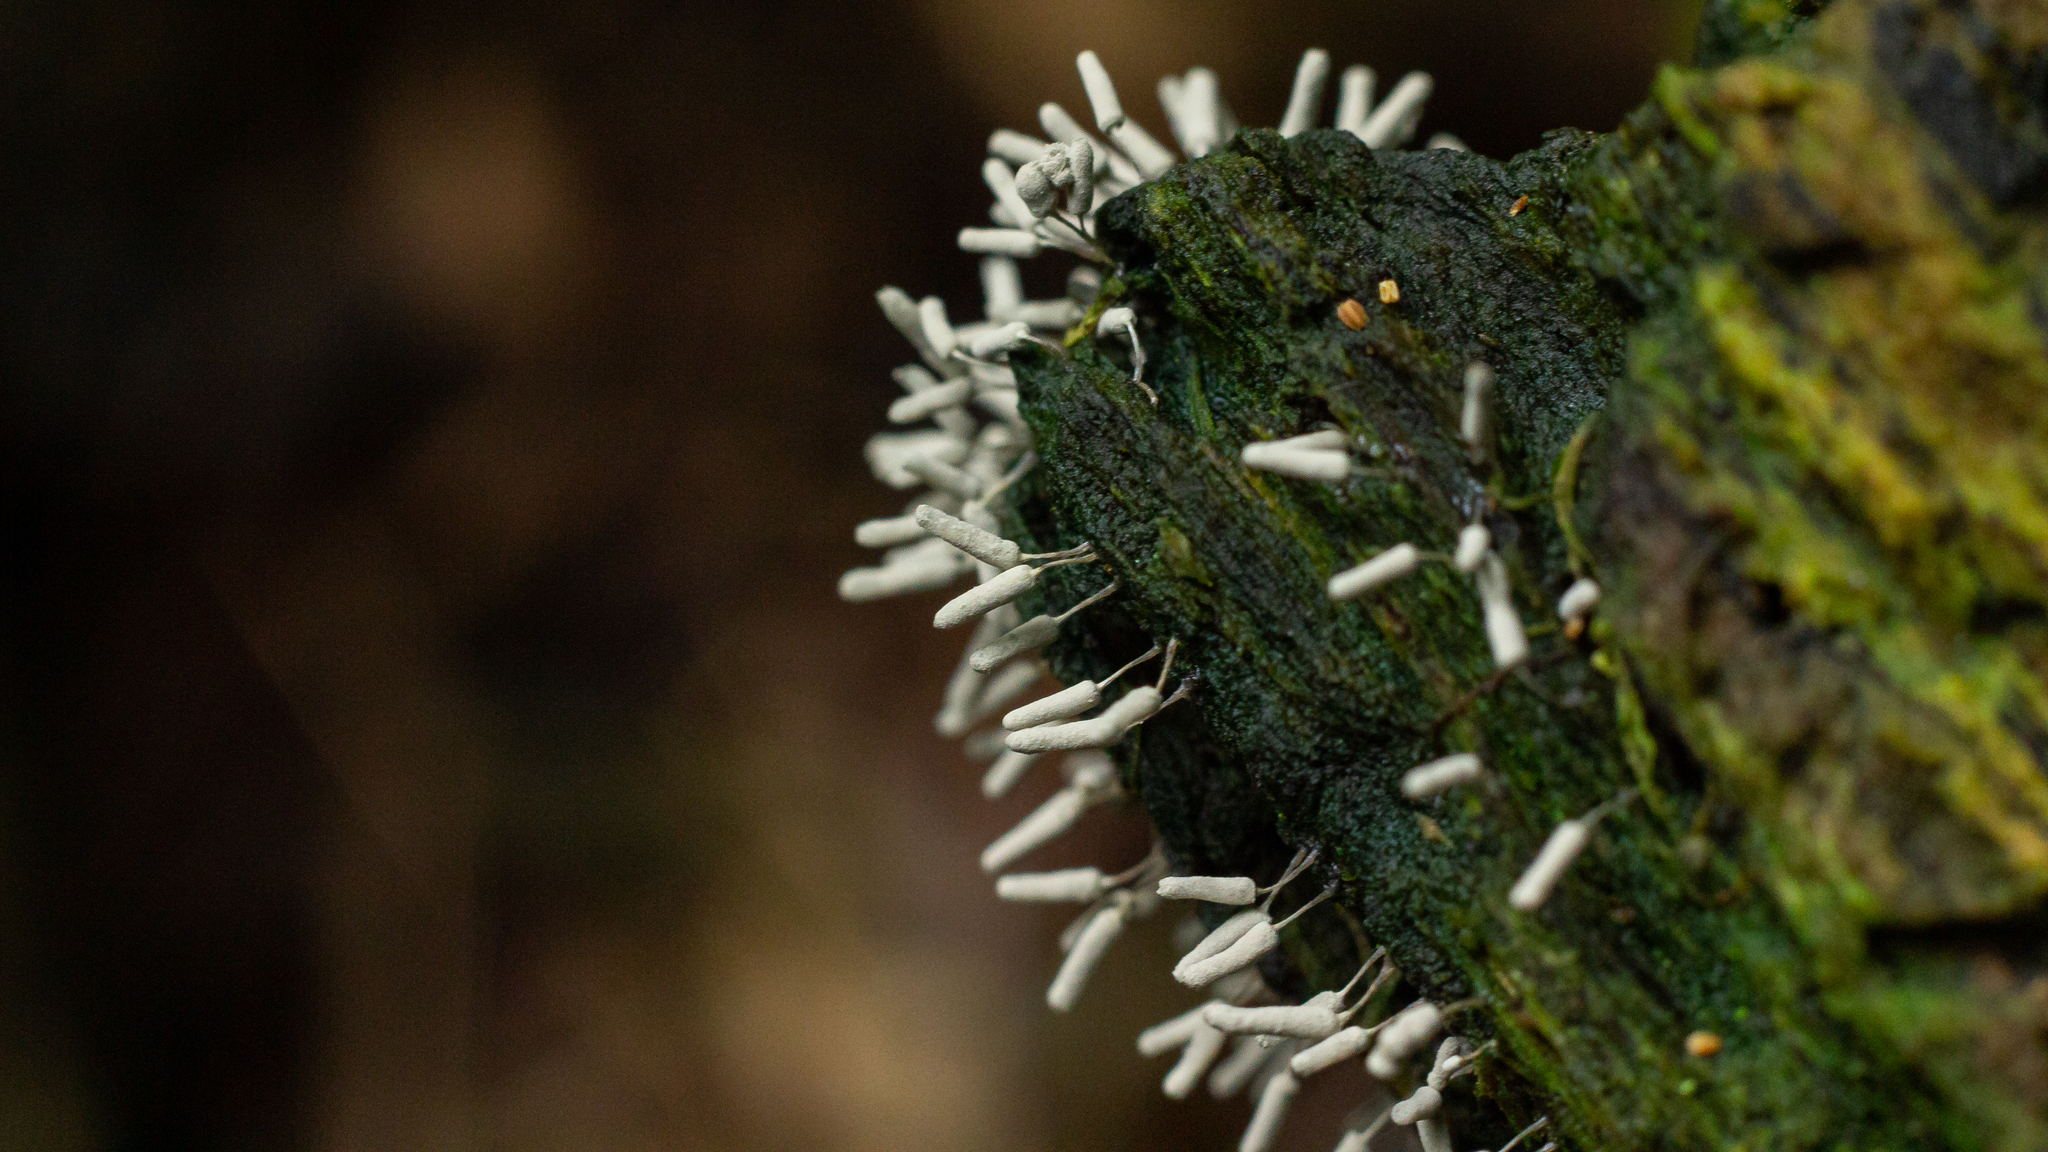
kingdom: Protozoa
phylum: Mycetozoa
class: Myxomycetes
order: Trichiales
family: Arcyriaceae
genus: Arcyria
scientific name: Arcyria cinerea
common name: White carnival candy slime mold
